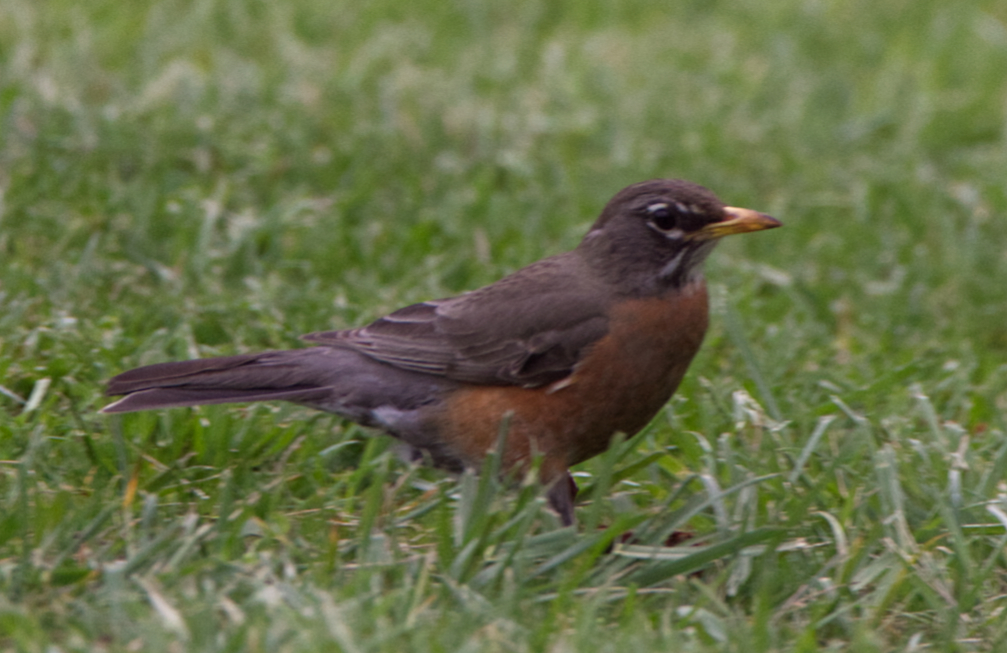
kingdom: Animalia
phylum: Chordata
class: Aves
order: Passeriformes
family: Turdidae
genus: Turdus
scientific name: Turdus migratorius
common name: American robin
